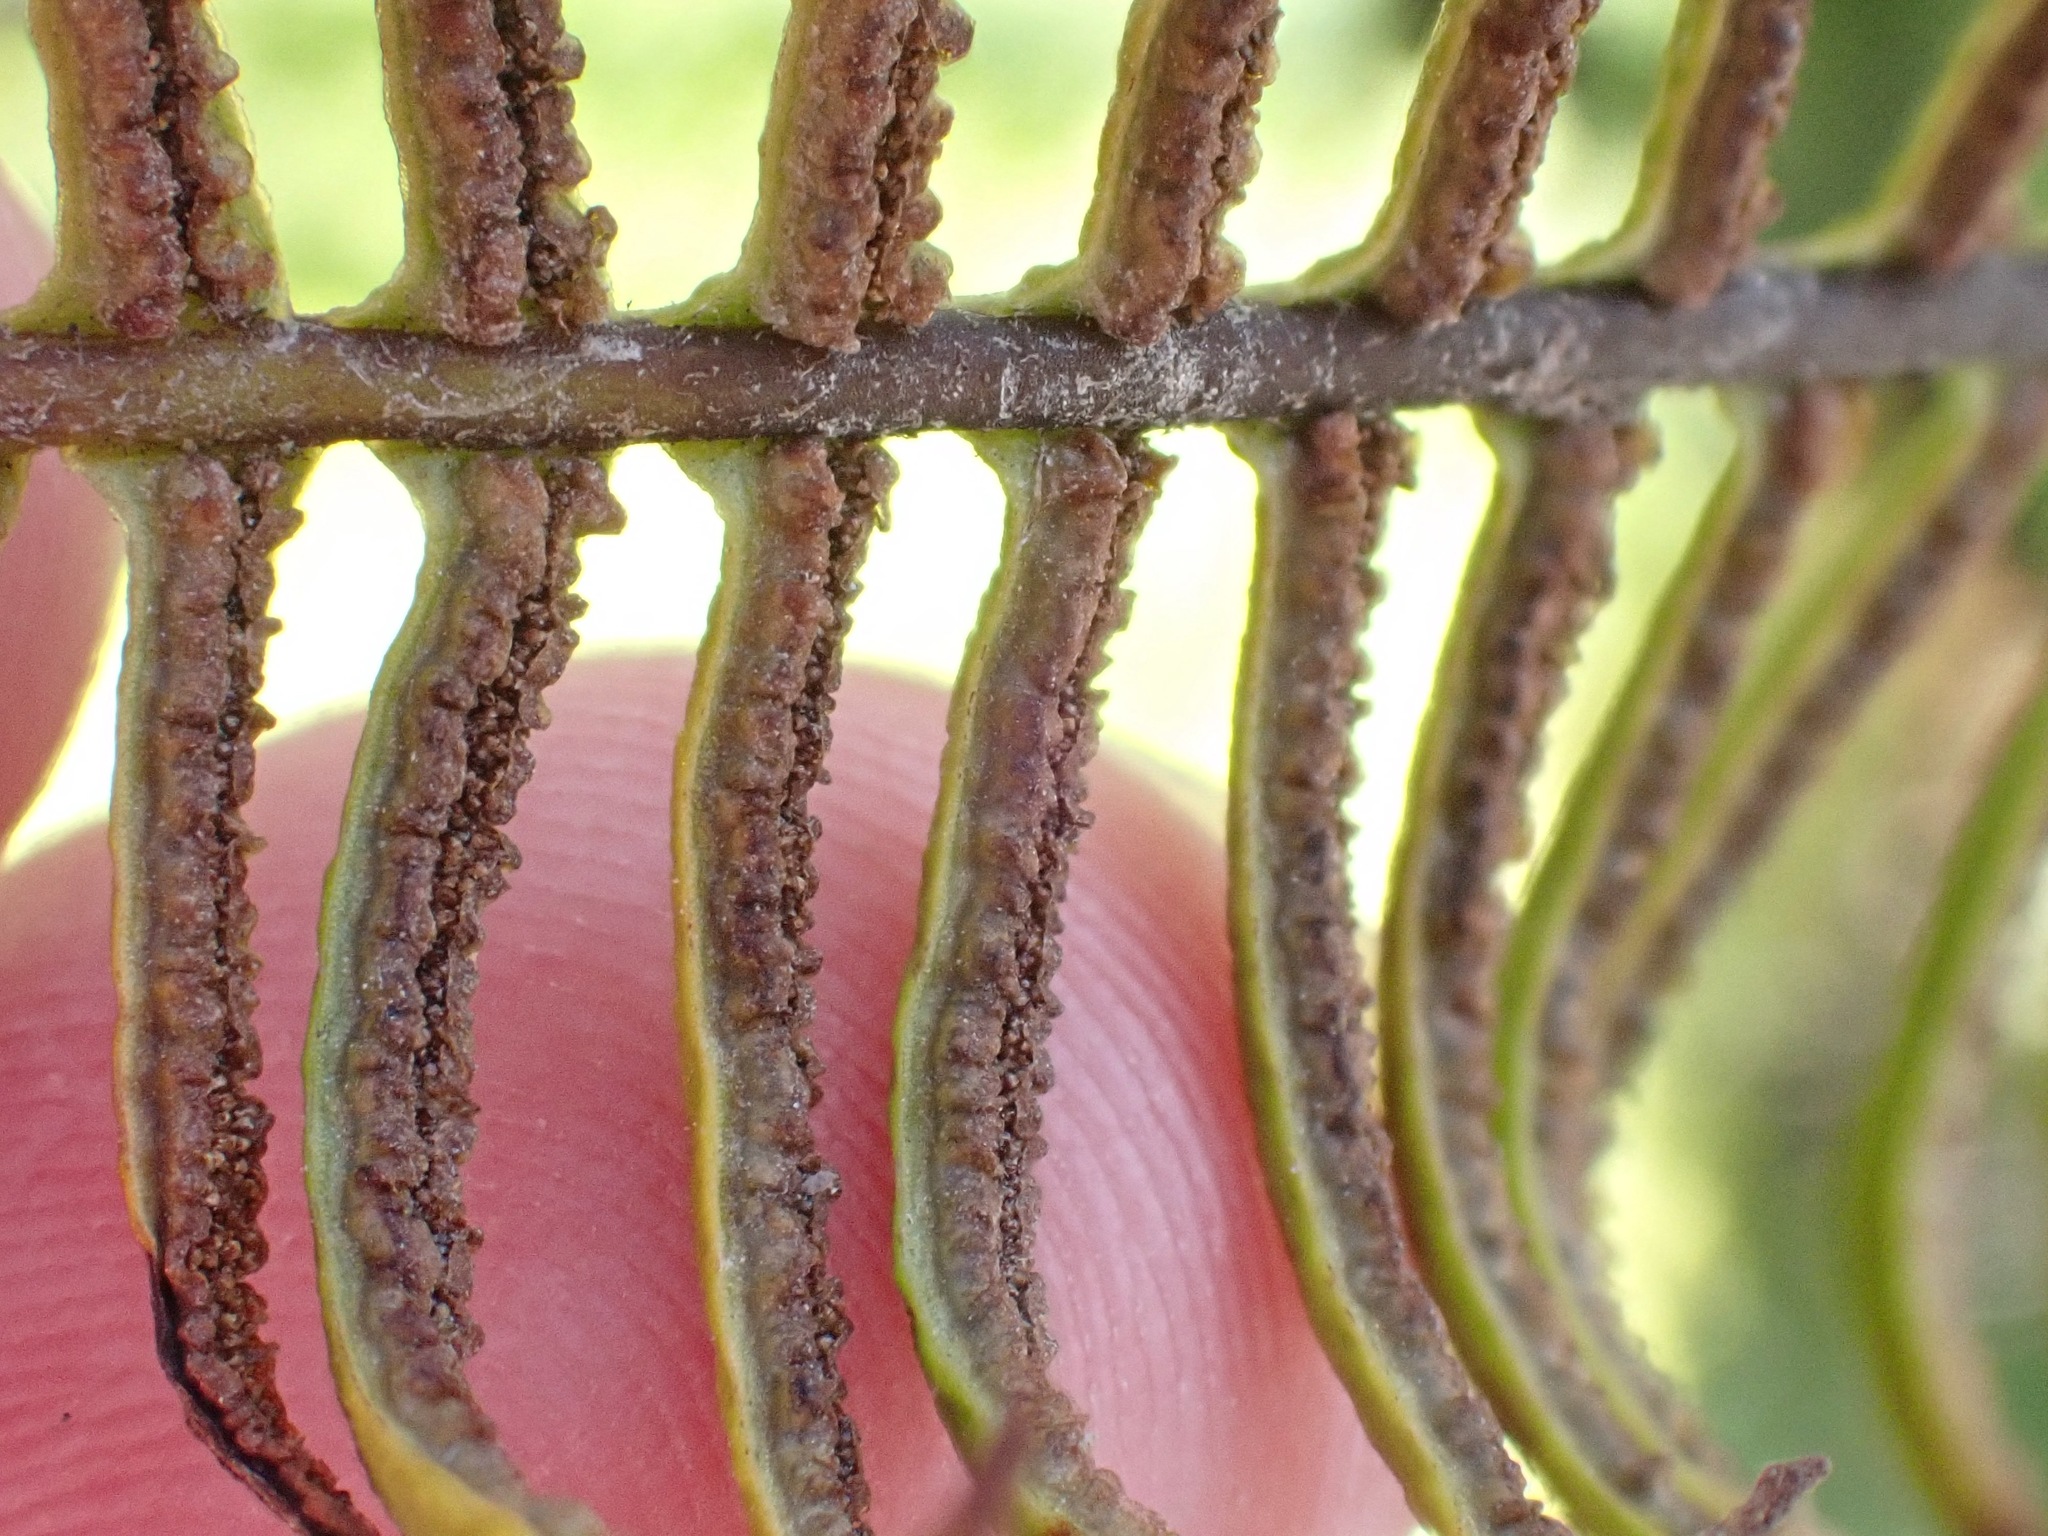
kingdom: Plantae
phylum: Tracheophyta
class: Polypodiopsida
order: Polypodiales
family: Blechnaceae
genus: Struthiopteris
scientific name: Struthiopteris spicant
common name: Deer fern
